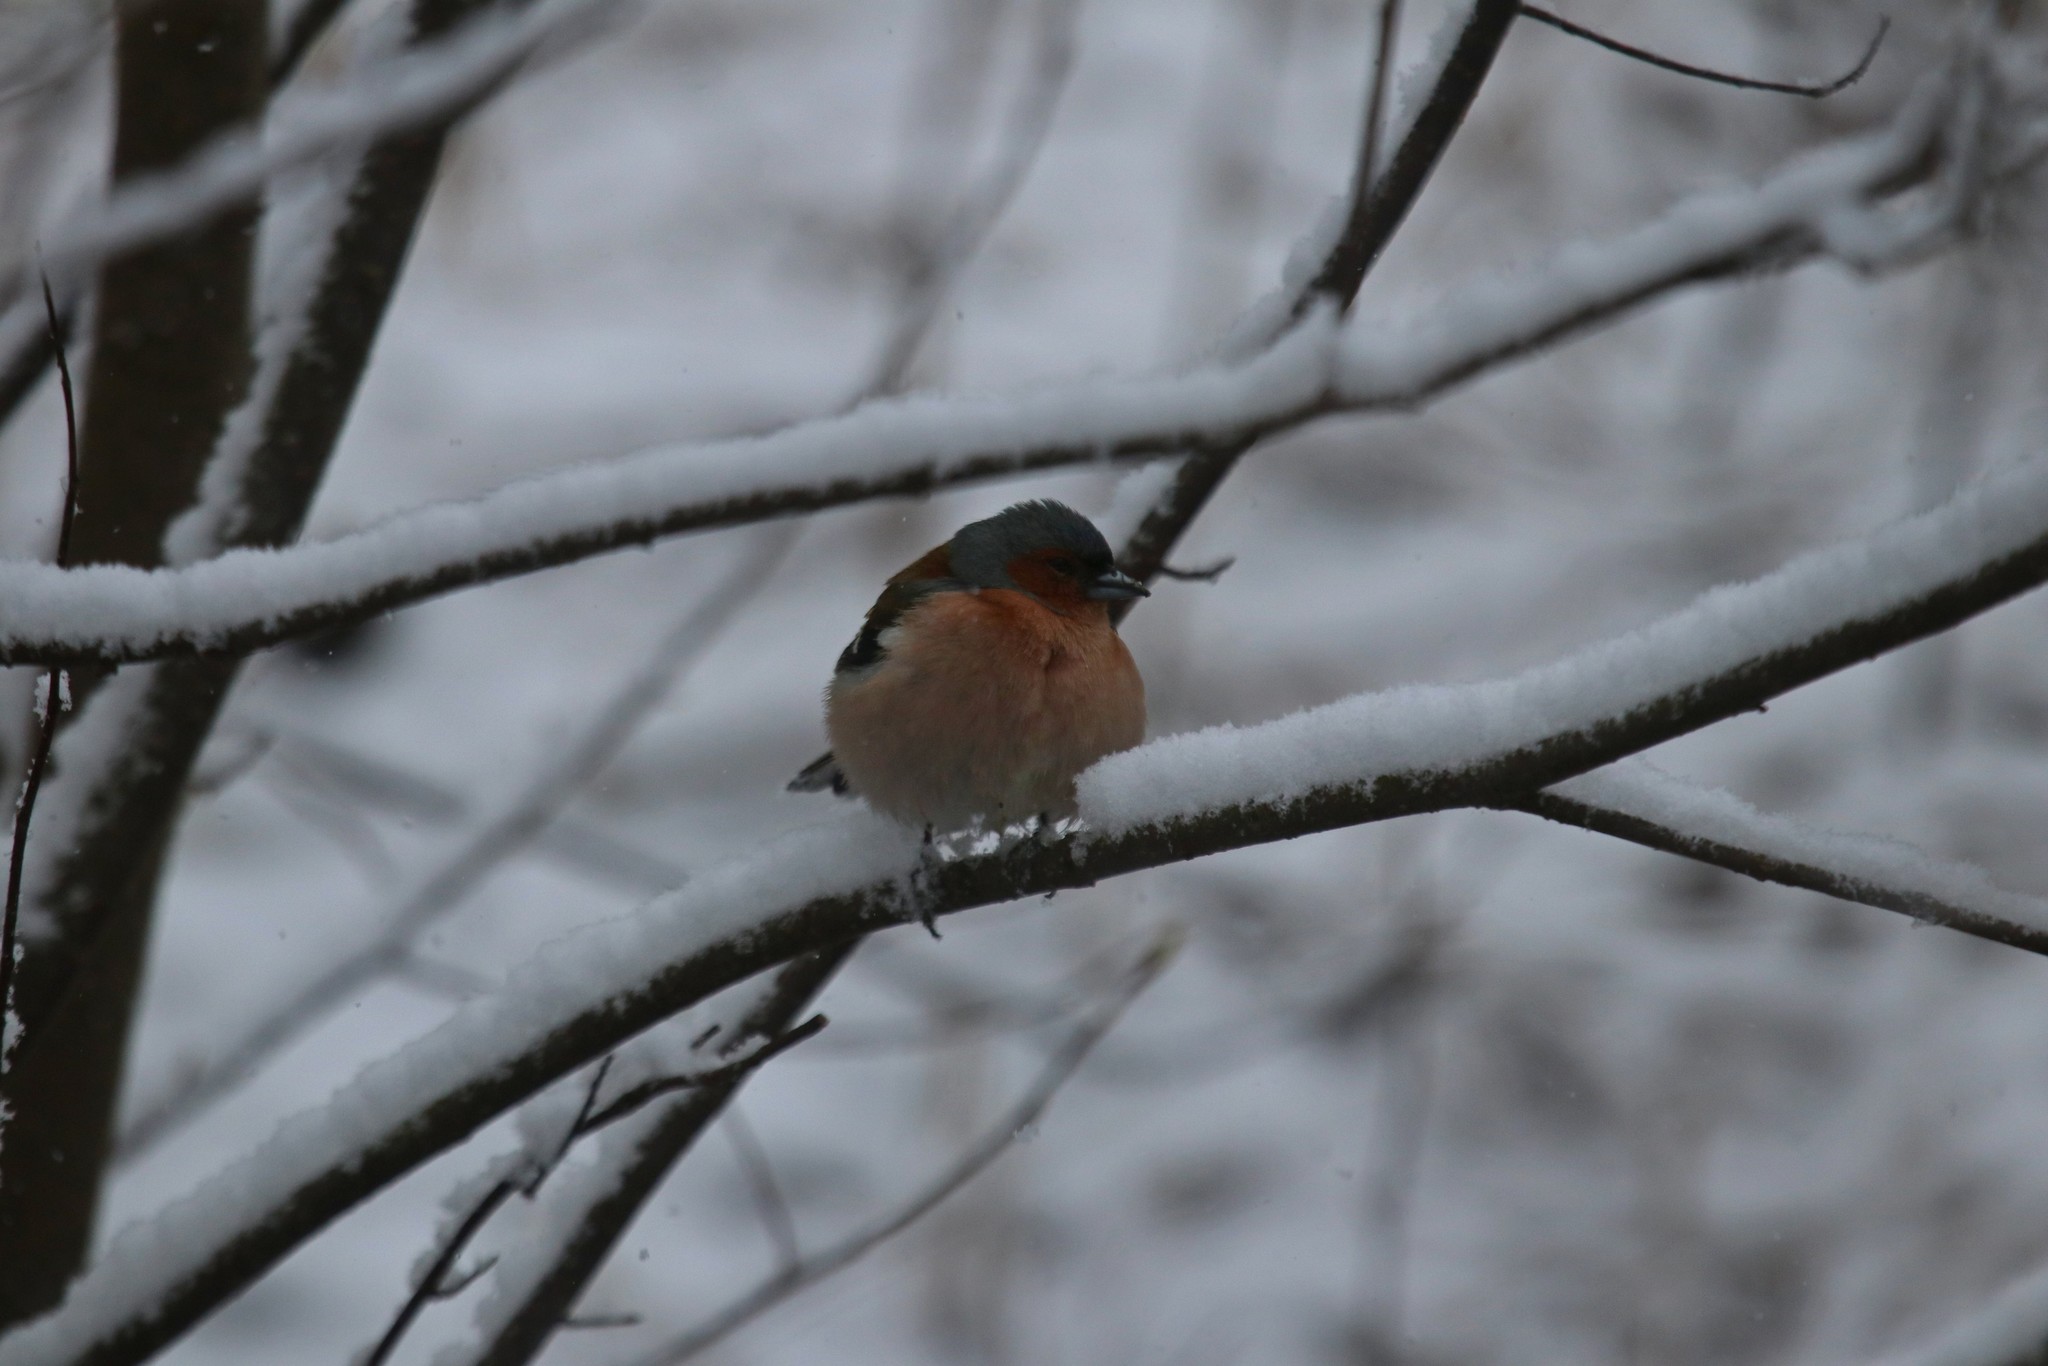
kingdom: Animalia
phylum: Chordata
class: Aves
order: Passeriformes
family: Fringillidae
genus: Fringilla
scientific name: Fringilla coelebs
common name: Common chaffinch
